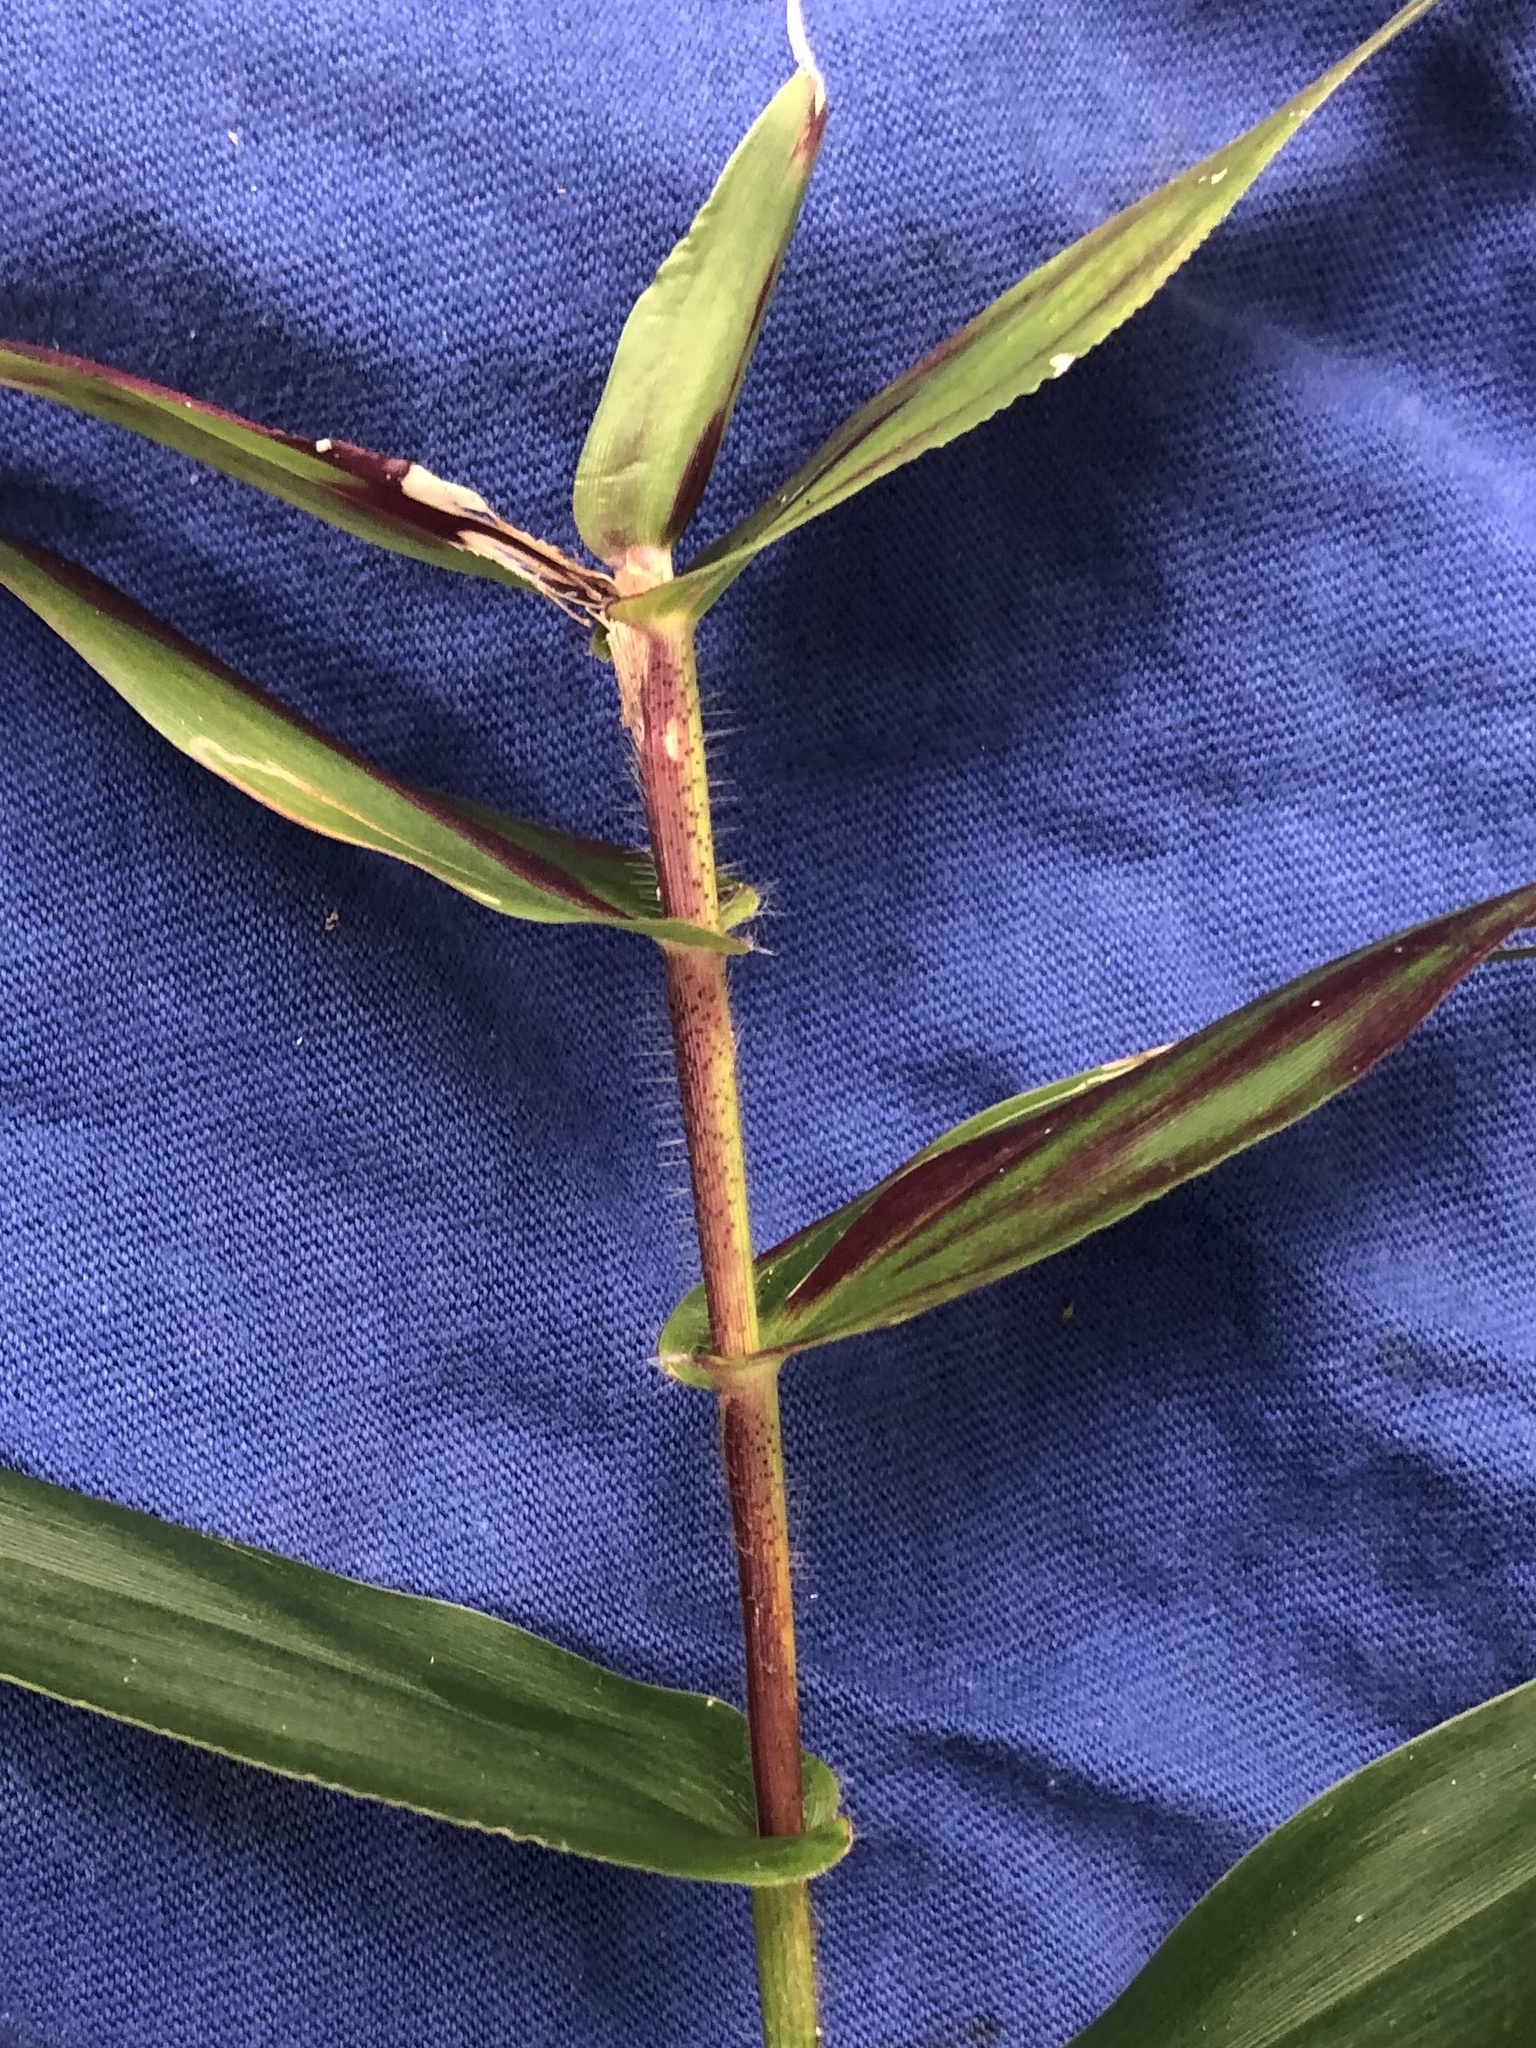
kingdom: Plantae
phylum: Tracheophyta
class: Liliopsida
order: Poales
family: Poaceae
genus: Dichanthelium
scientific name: Dichanthelium clandestinum
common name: Deer-tongue grass
